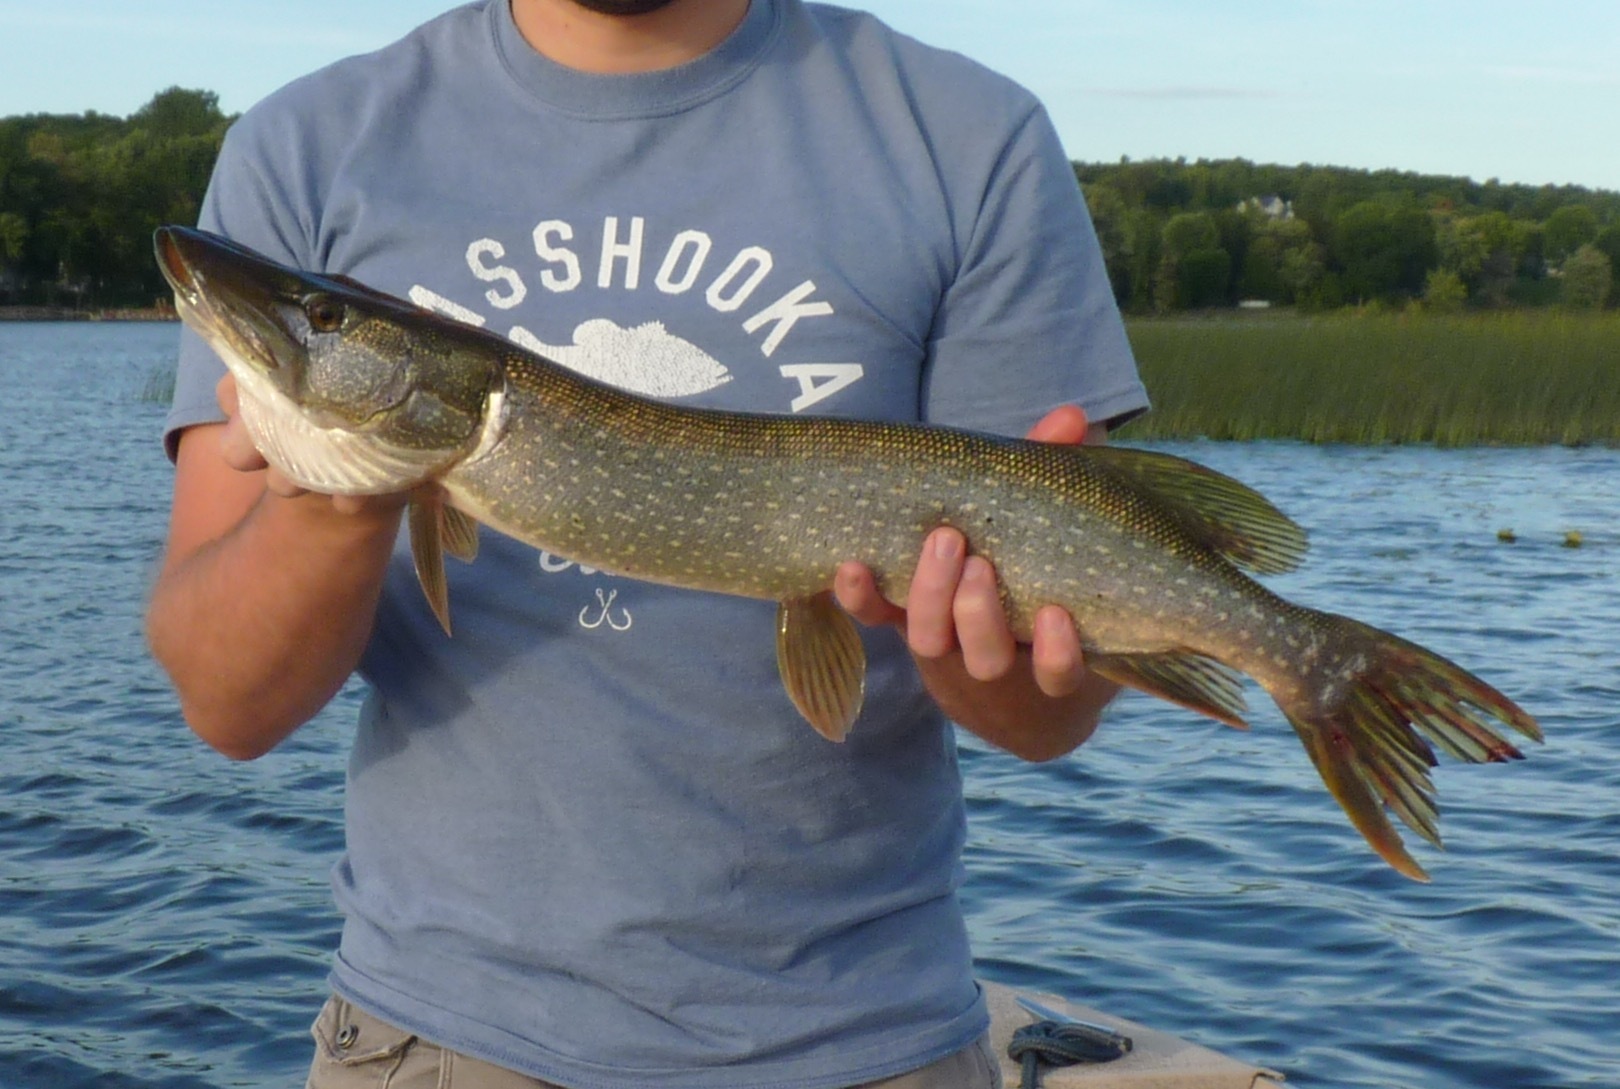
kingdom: Animalia
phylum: Chordata
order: Esociformes
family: Esocidae
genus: Esox
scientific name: Esox lucius
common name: Northern pike
